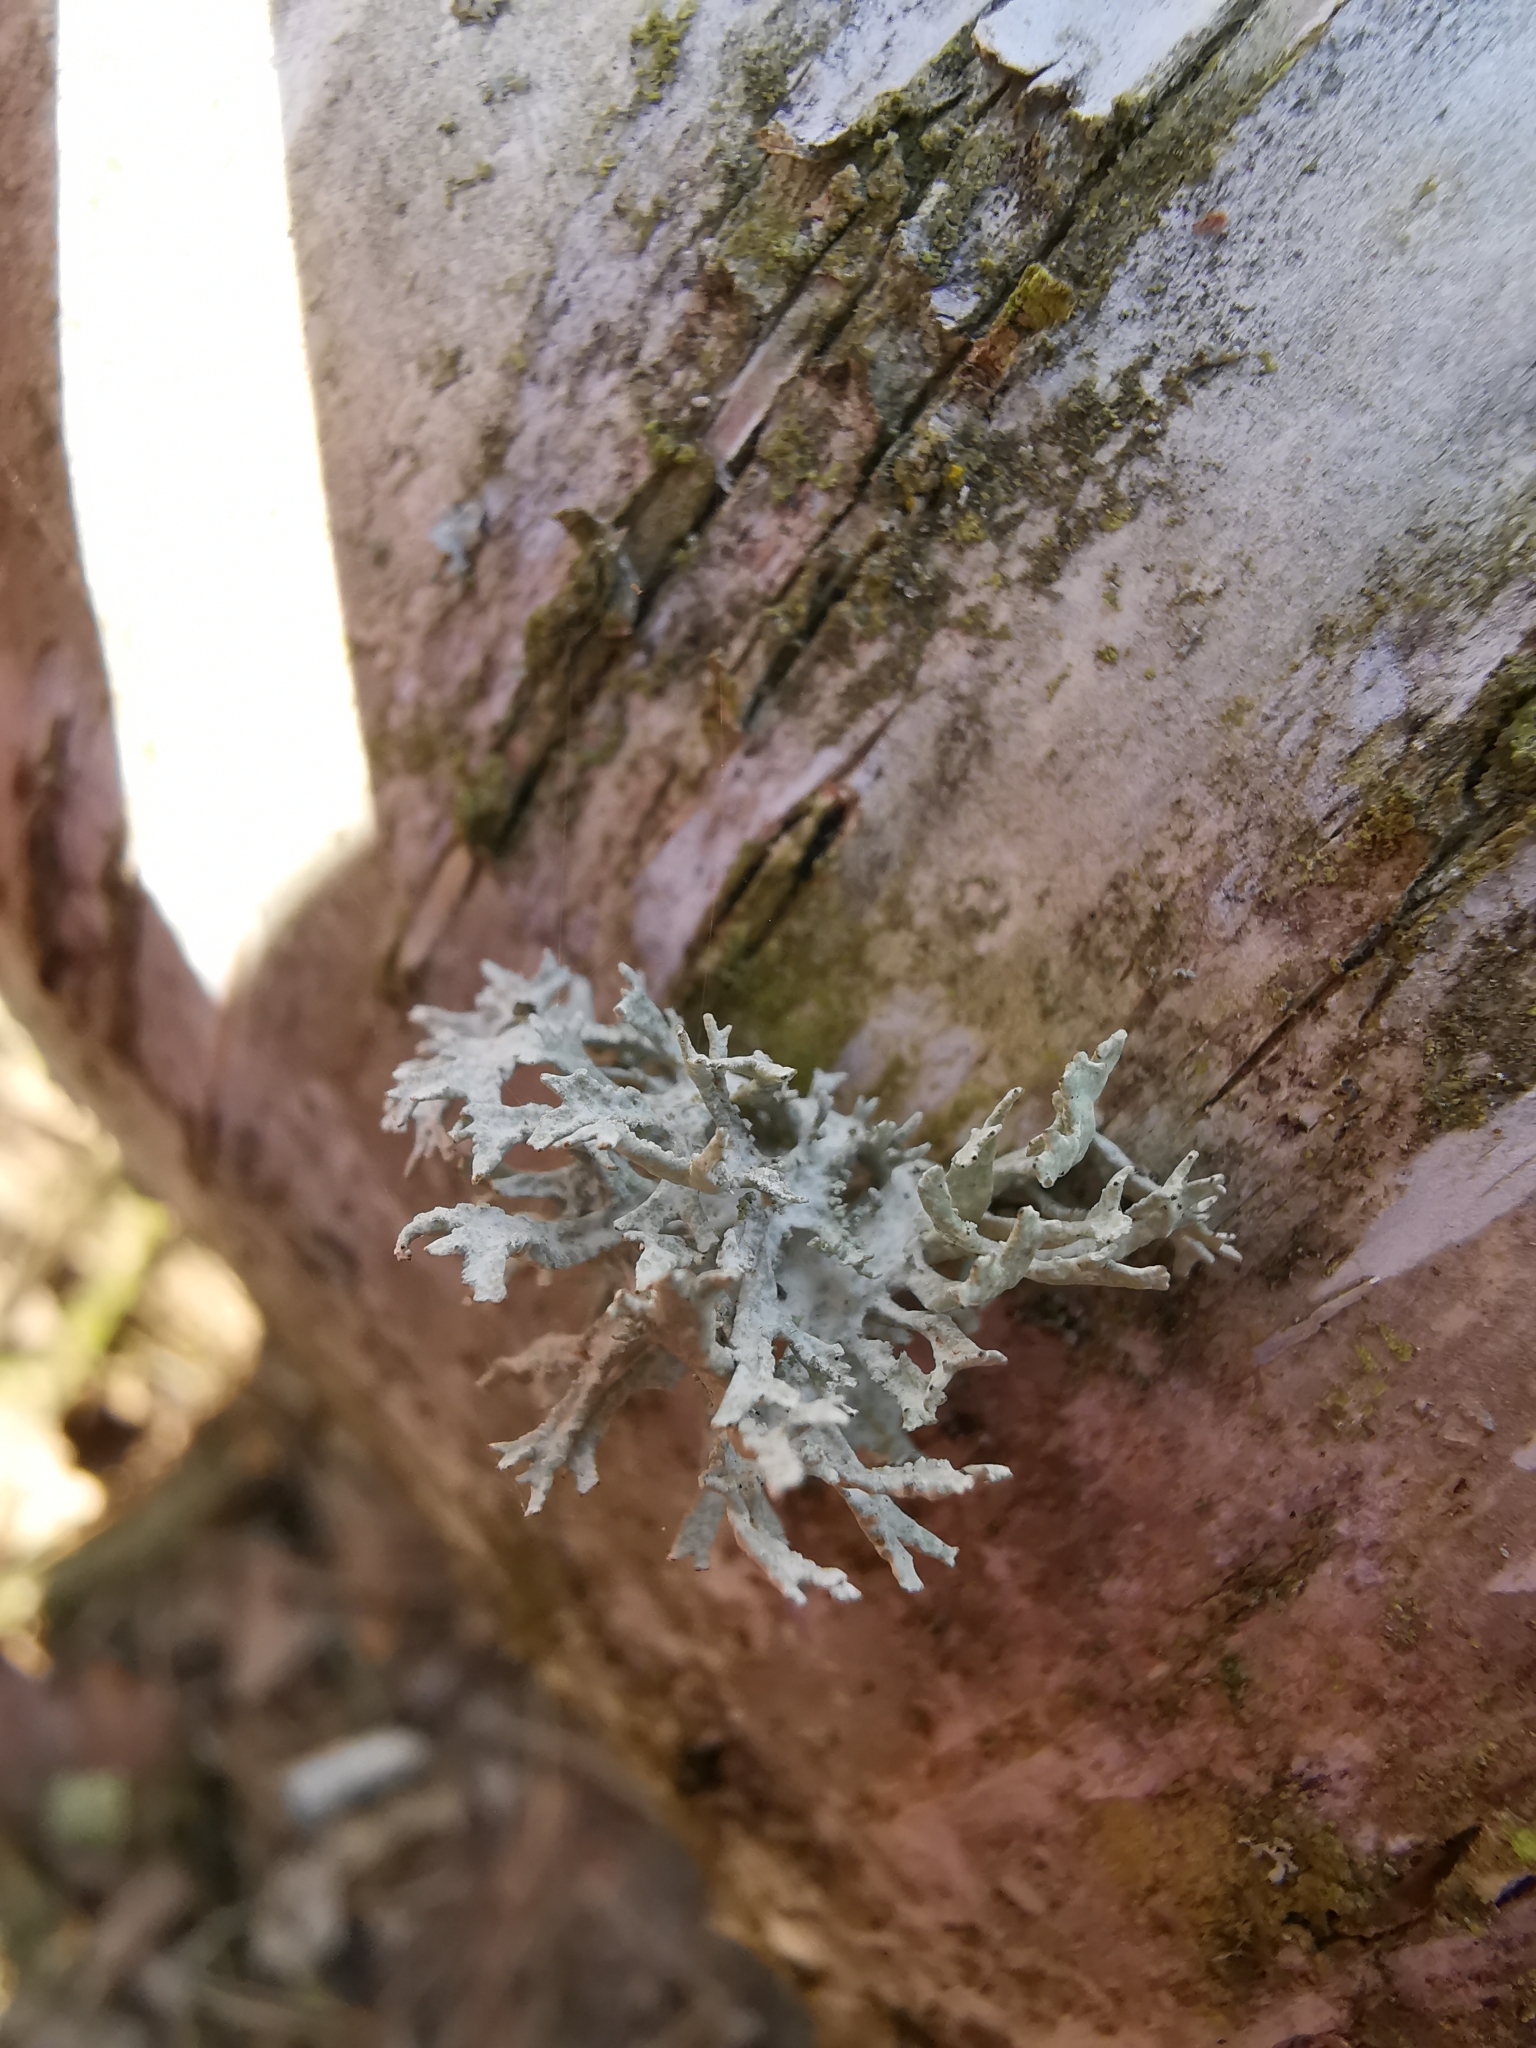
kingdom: Fungi
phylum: Ascomycota
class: Lecanoromycetes
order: Lecanorales
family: Parmeliaceae
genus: Evernia
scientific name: Evernia prunastri
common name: Oak moss
